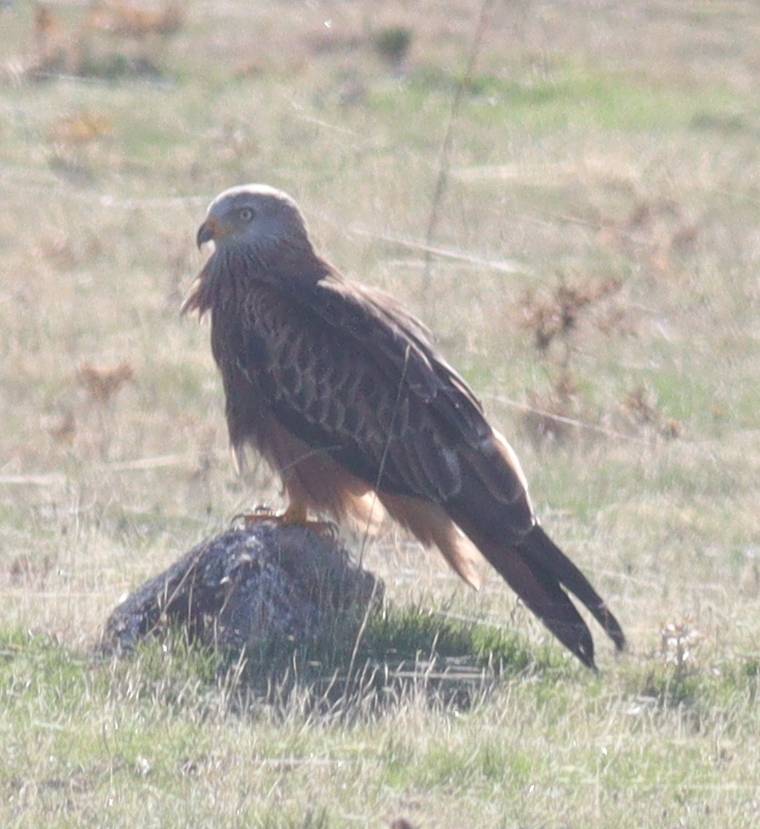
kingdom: Animalia
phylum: Chordata
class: Aves
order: Accipitriformes
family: Accipitridae
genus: Milvus
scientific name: Milvus milvus
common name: Red kite
